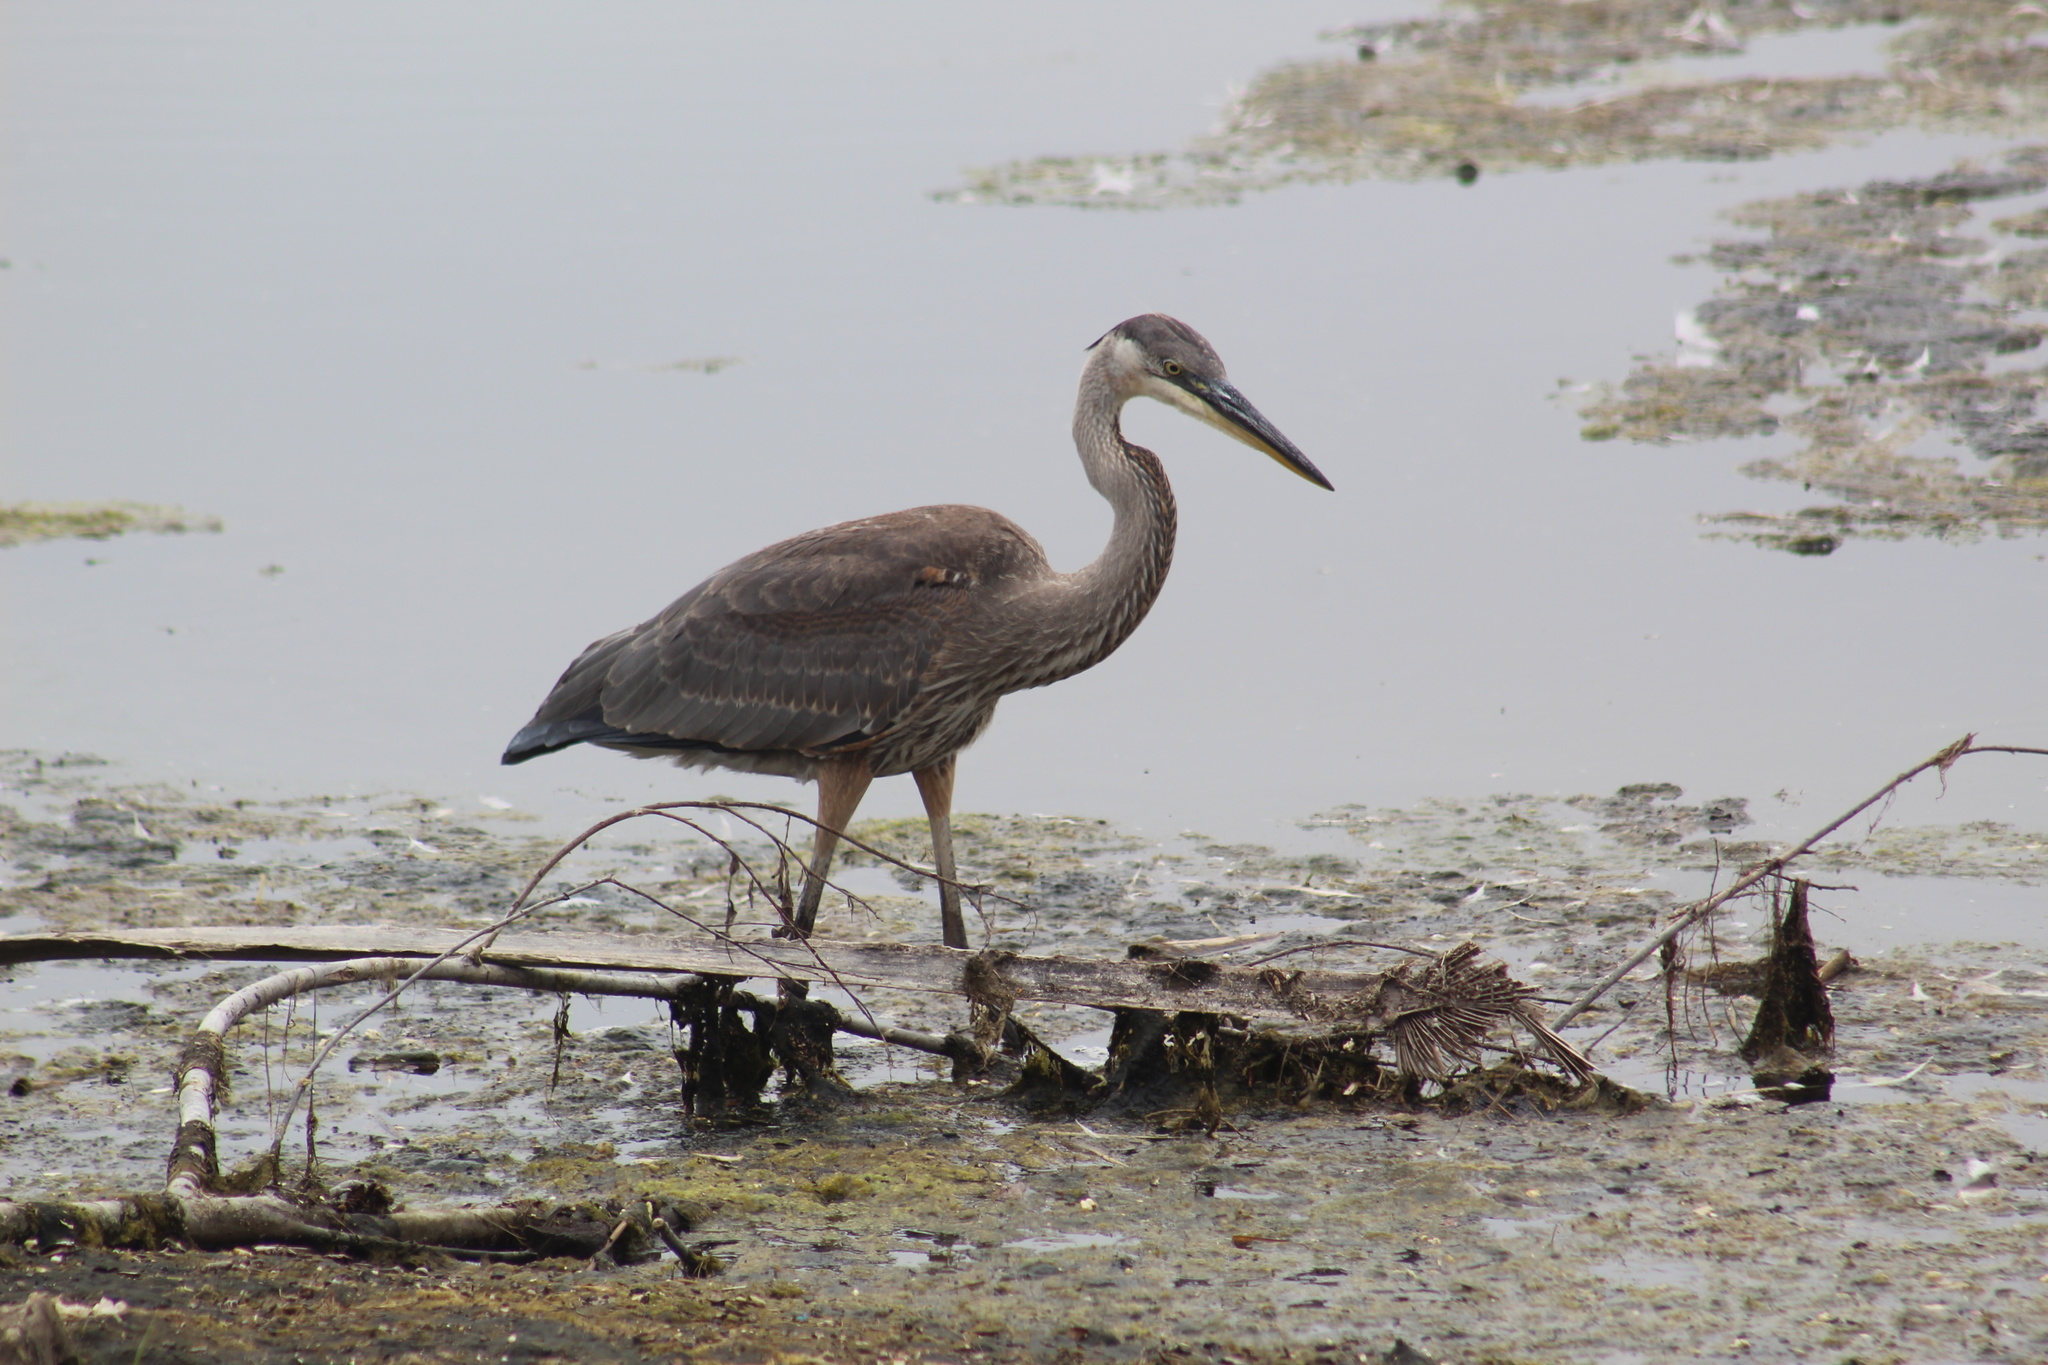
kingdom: Animalia
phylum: Chordata
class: Aves
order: Pelecaniformes
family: Ardeidae
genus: Ardea
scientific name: Ardea herodias
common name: Great blue heron
